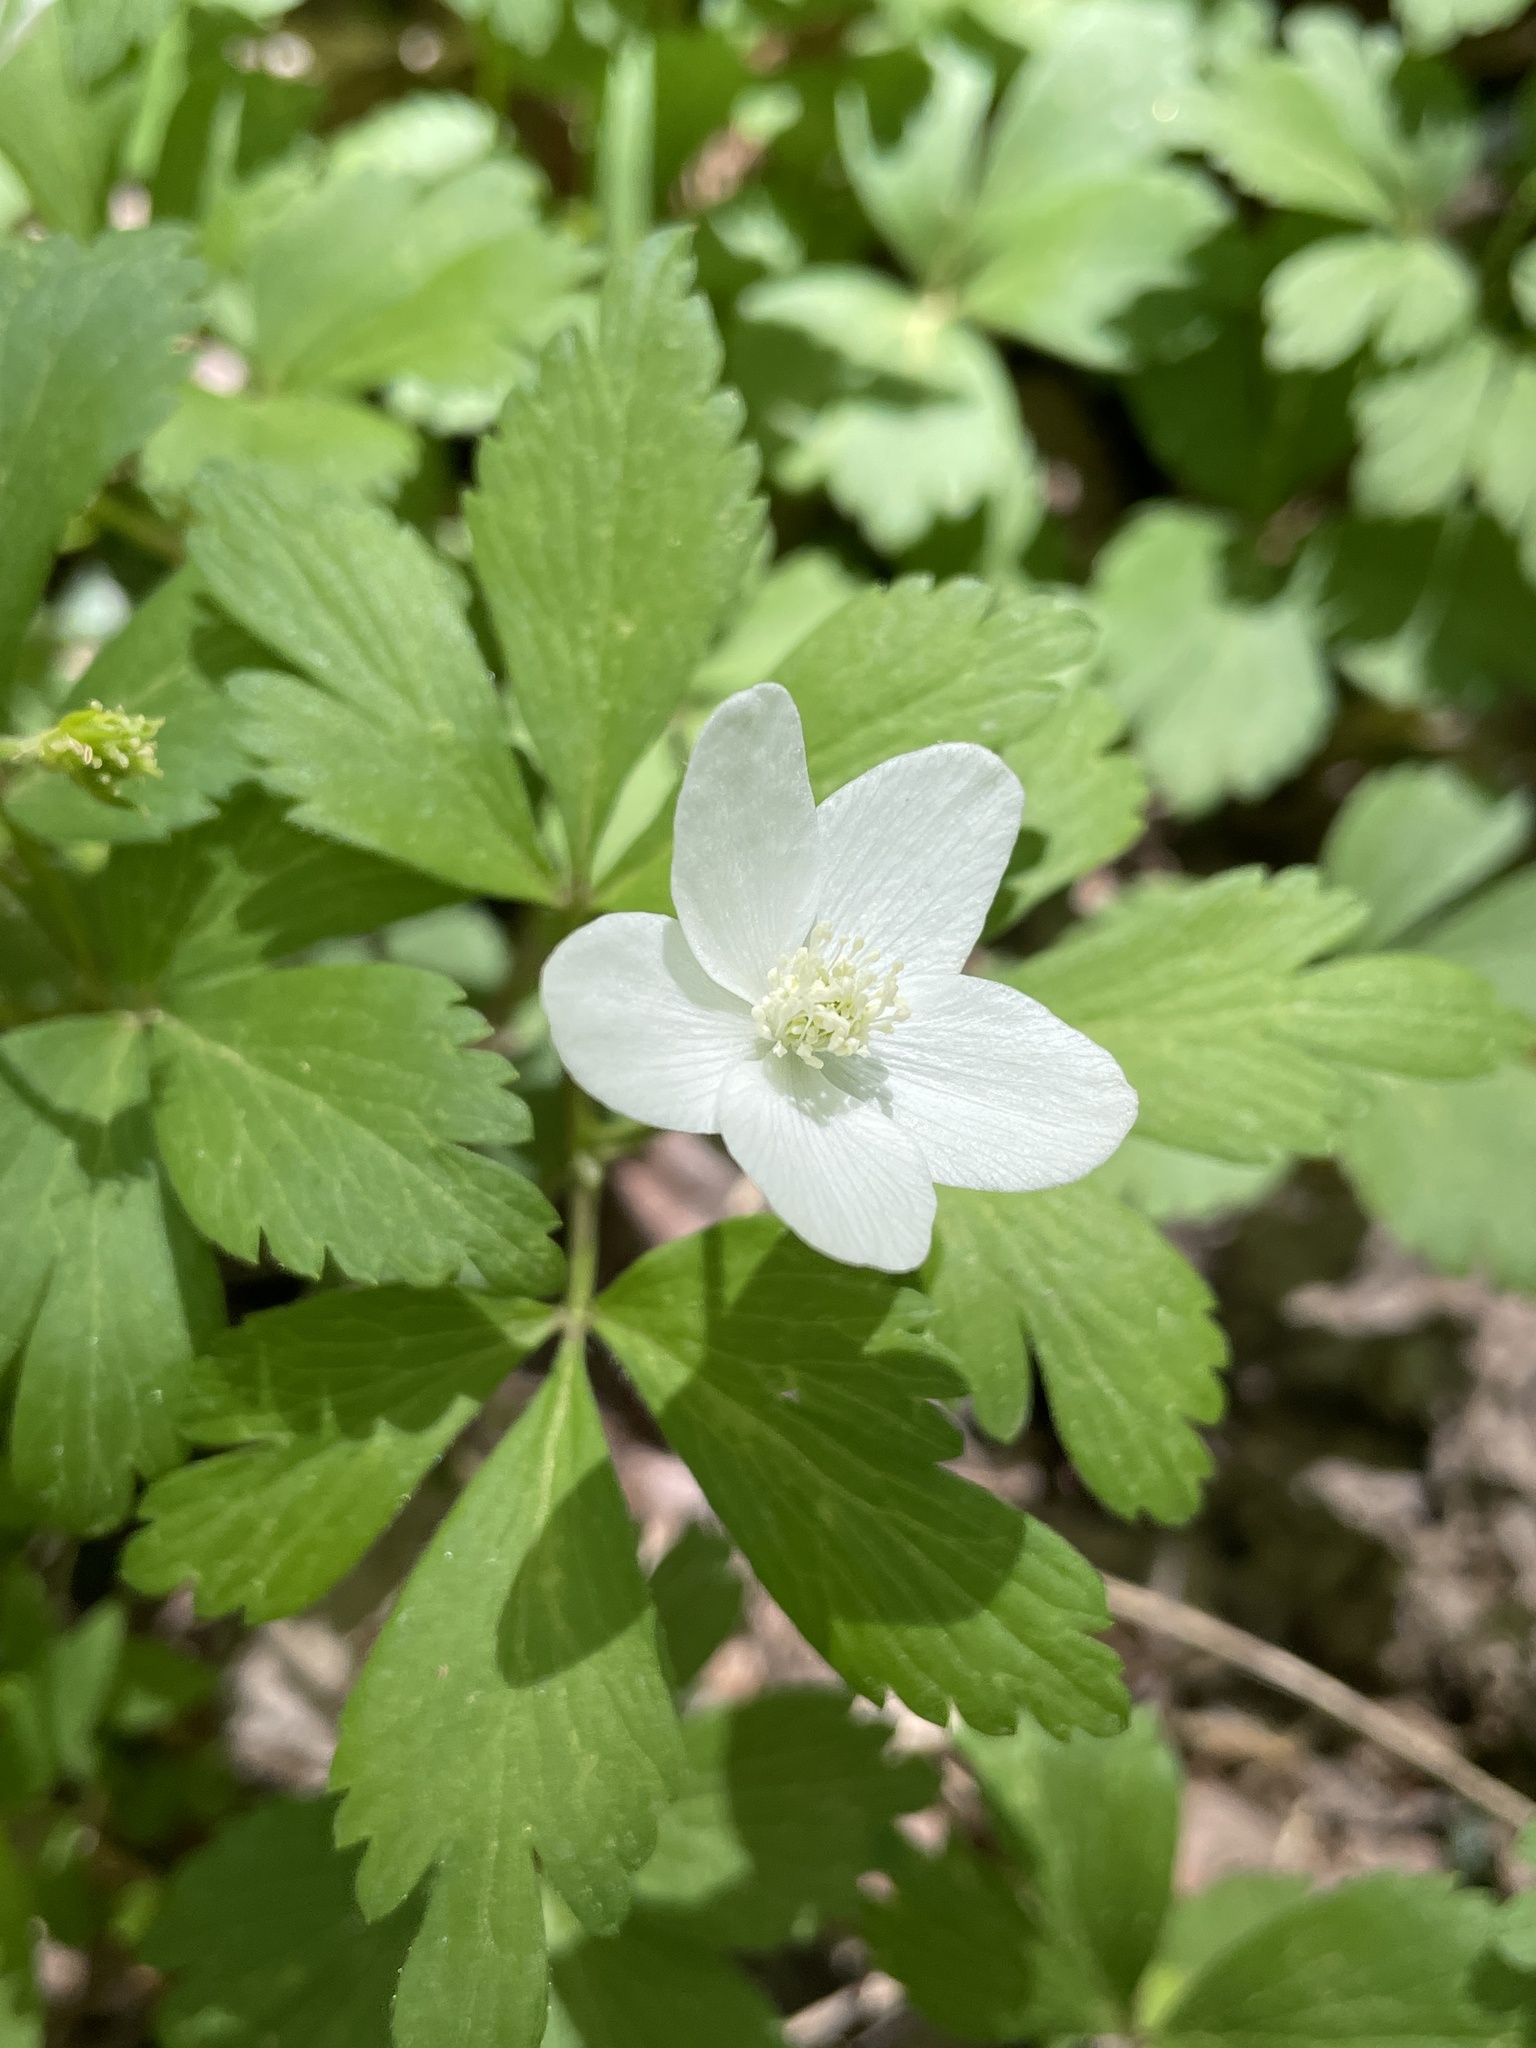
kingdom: Plantae
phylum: Tracheophyta
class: Magnoliopsida
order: Ranunculales
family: Ranunculaceae
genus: Anemone
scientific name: Anemone quinquefolia
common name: Wood anemone
